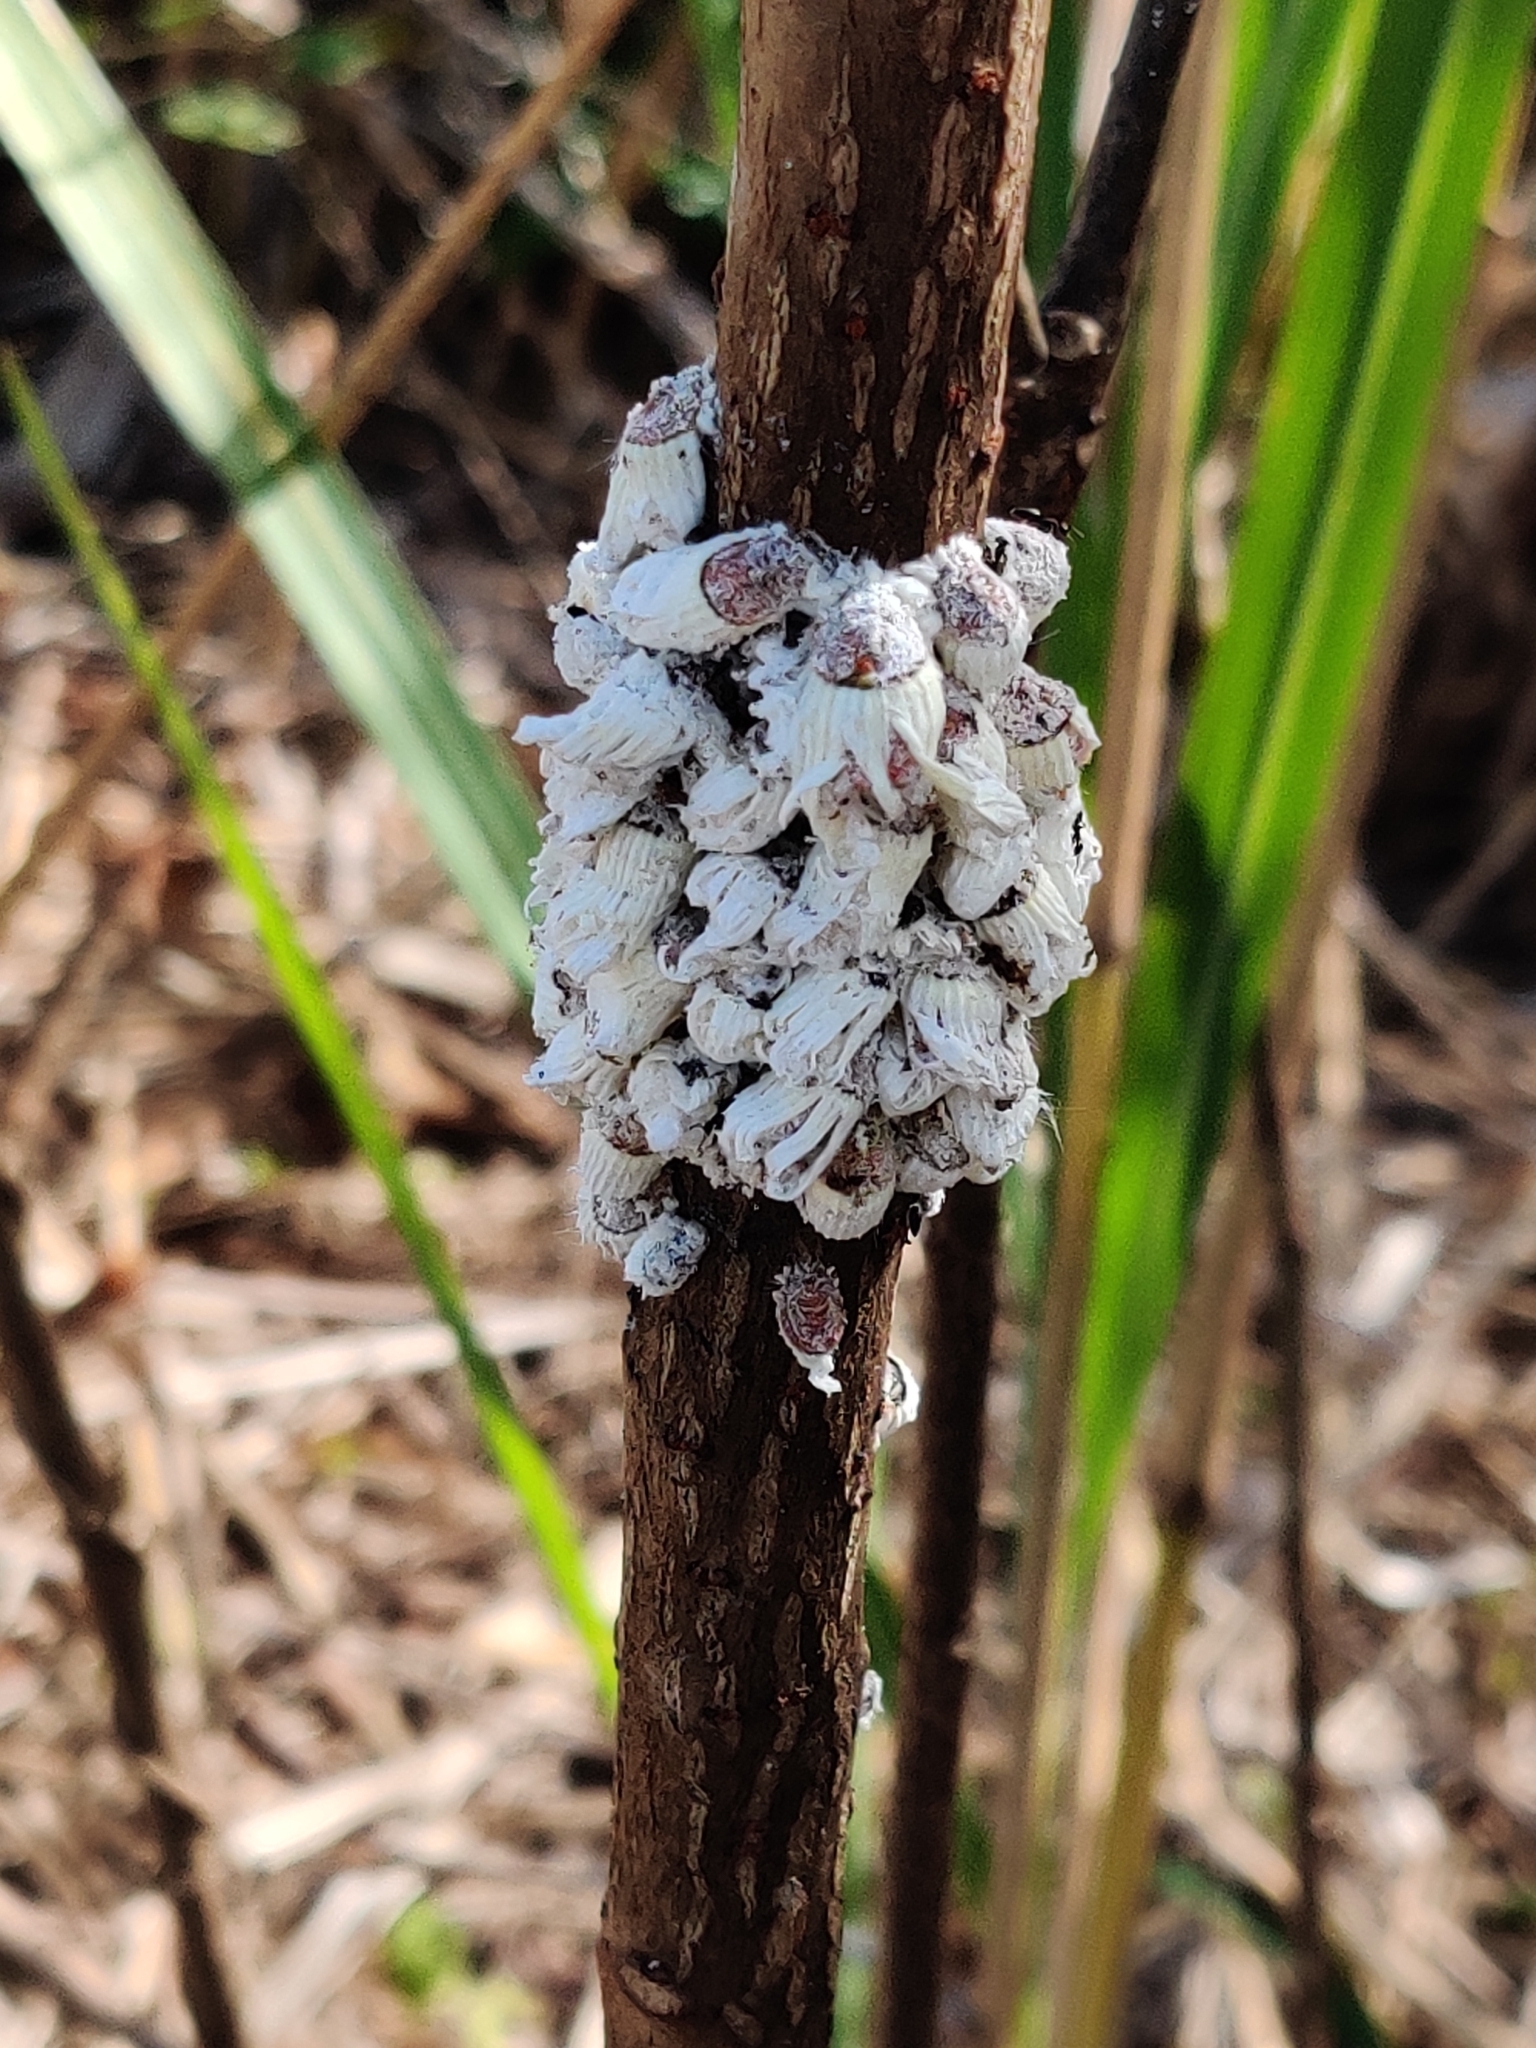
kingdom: Animalia
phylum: Arthropoda
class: Insecta
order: Hemiptera
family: Margarodidae
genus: Icerya
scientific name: Icerya purchasi
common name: Cottony cushion scale
